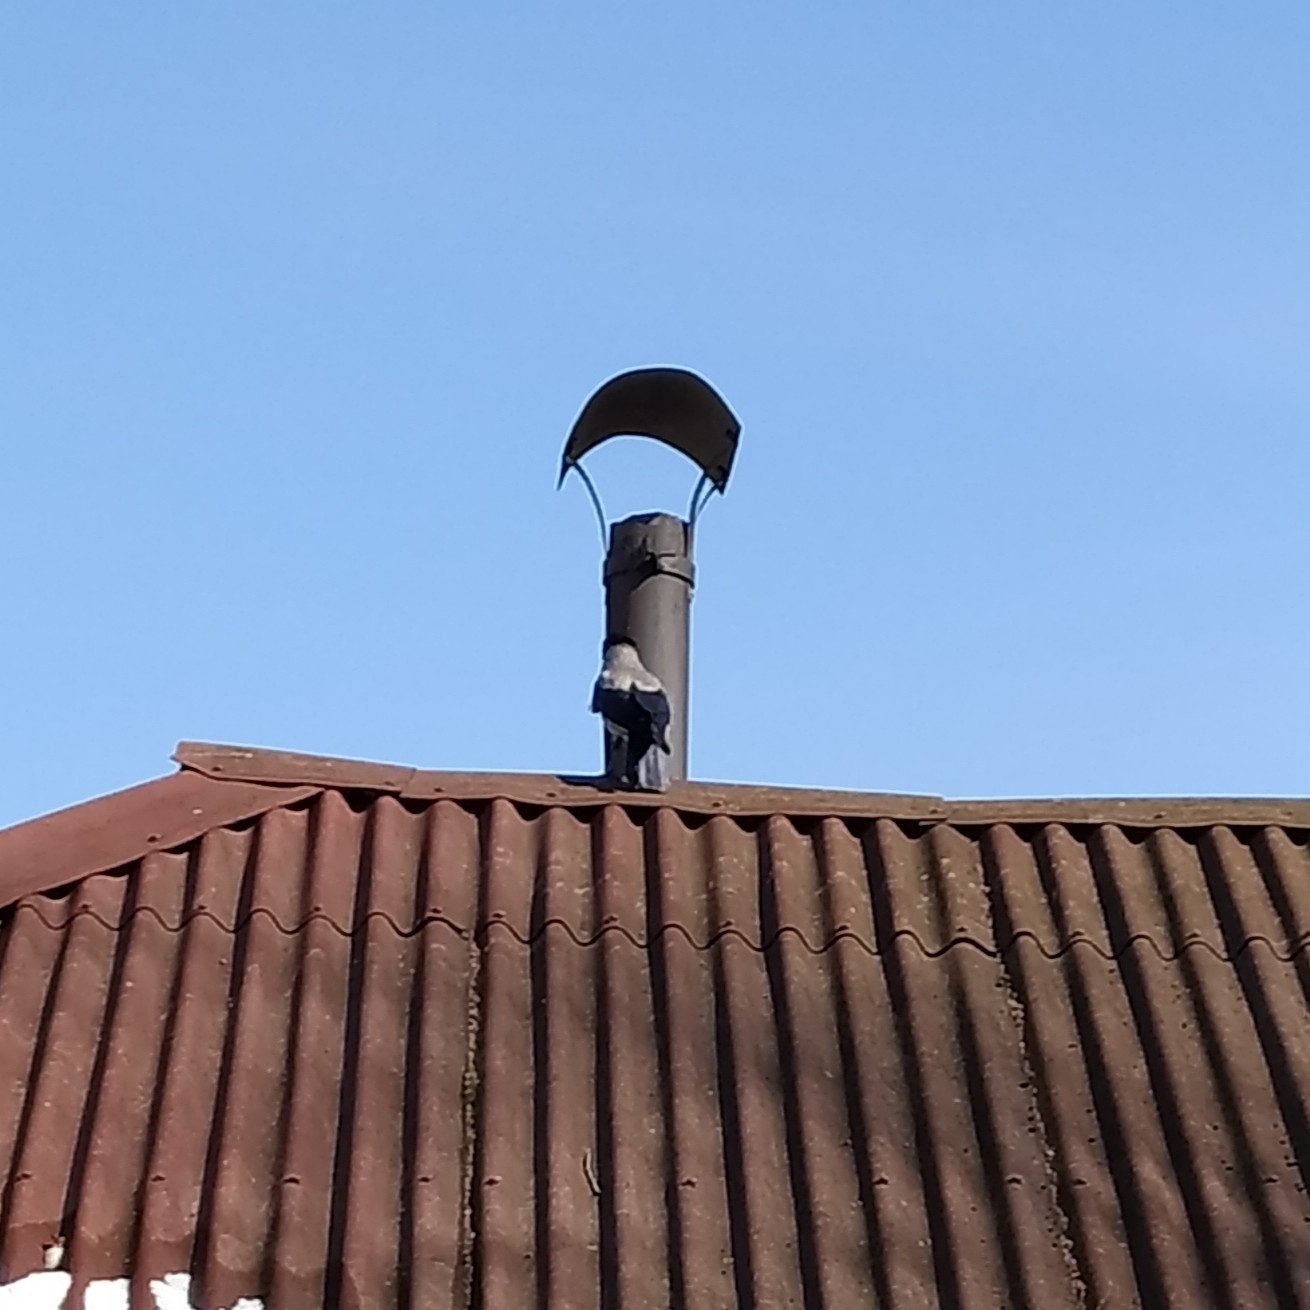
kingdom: Animalia
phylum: Chordata
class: Aves
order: Passeriformes
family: Corvidae
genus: Corvus
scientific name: Corvus cornix
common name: Hooded crow
